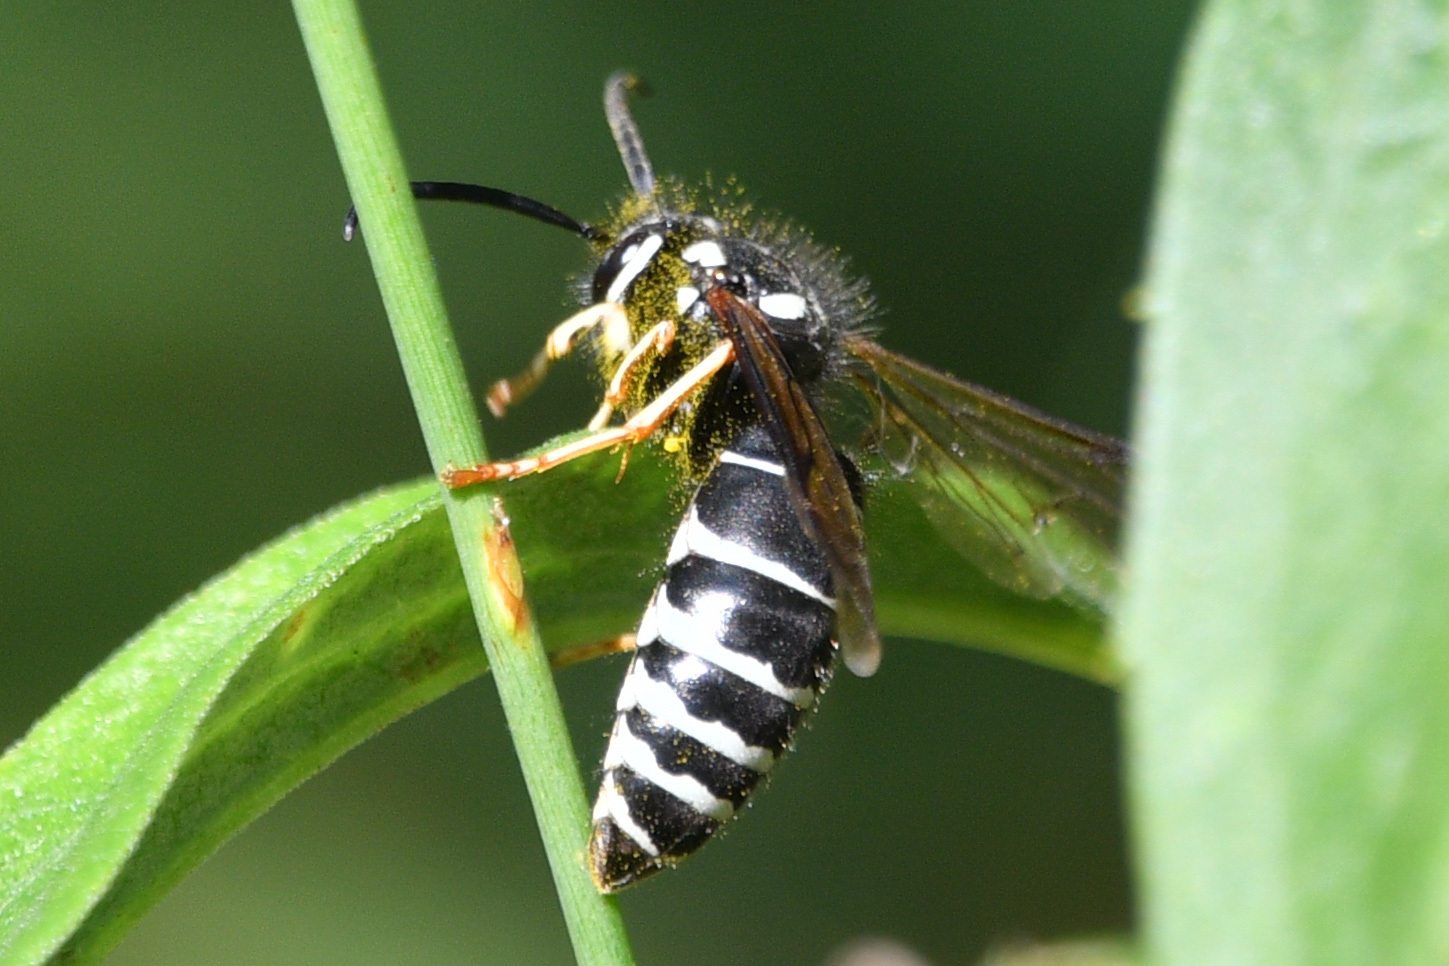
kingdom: Animalia
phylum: Arthropoda
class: Insecta
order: Hymenoptera
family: Vespidae
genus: Vespula
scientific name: Vespula consobrina
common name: Blackjacket
